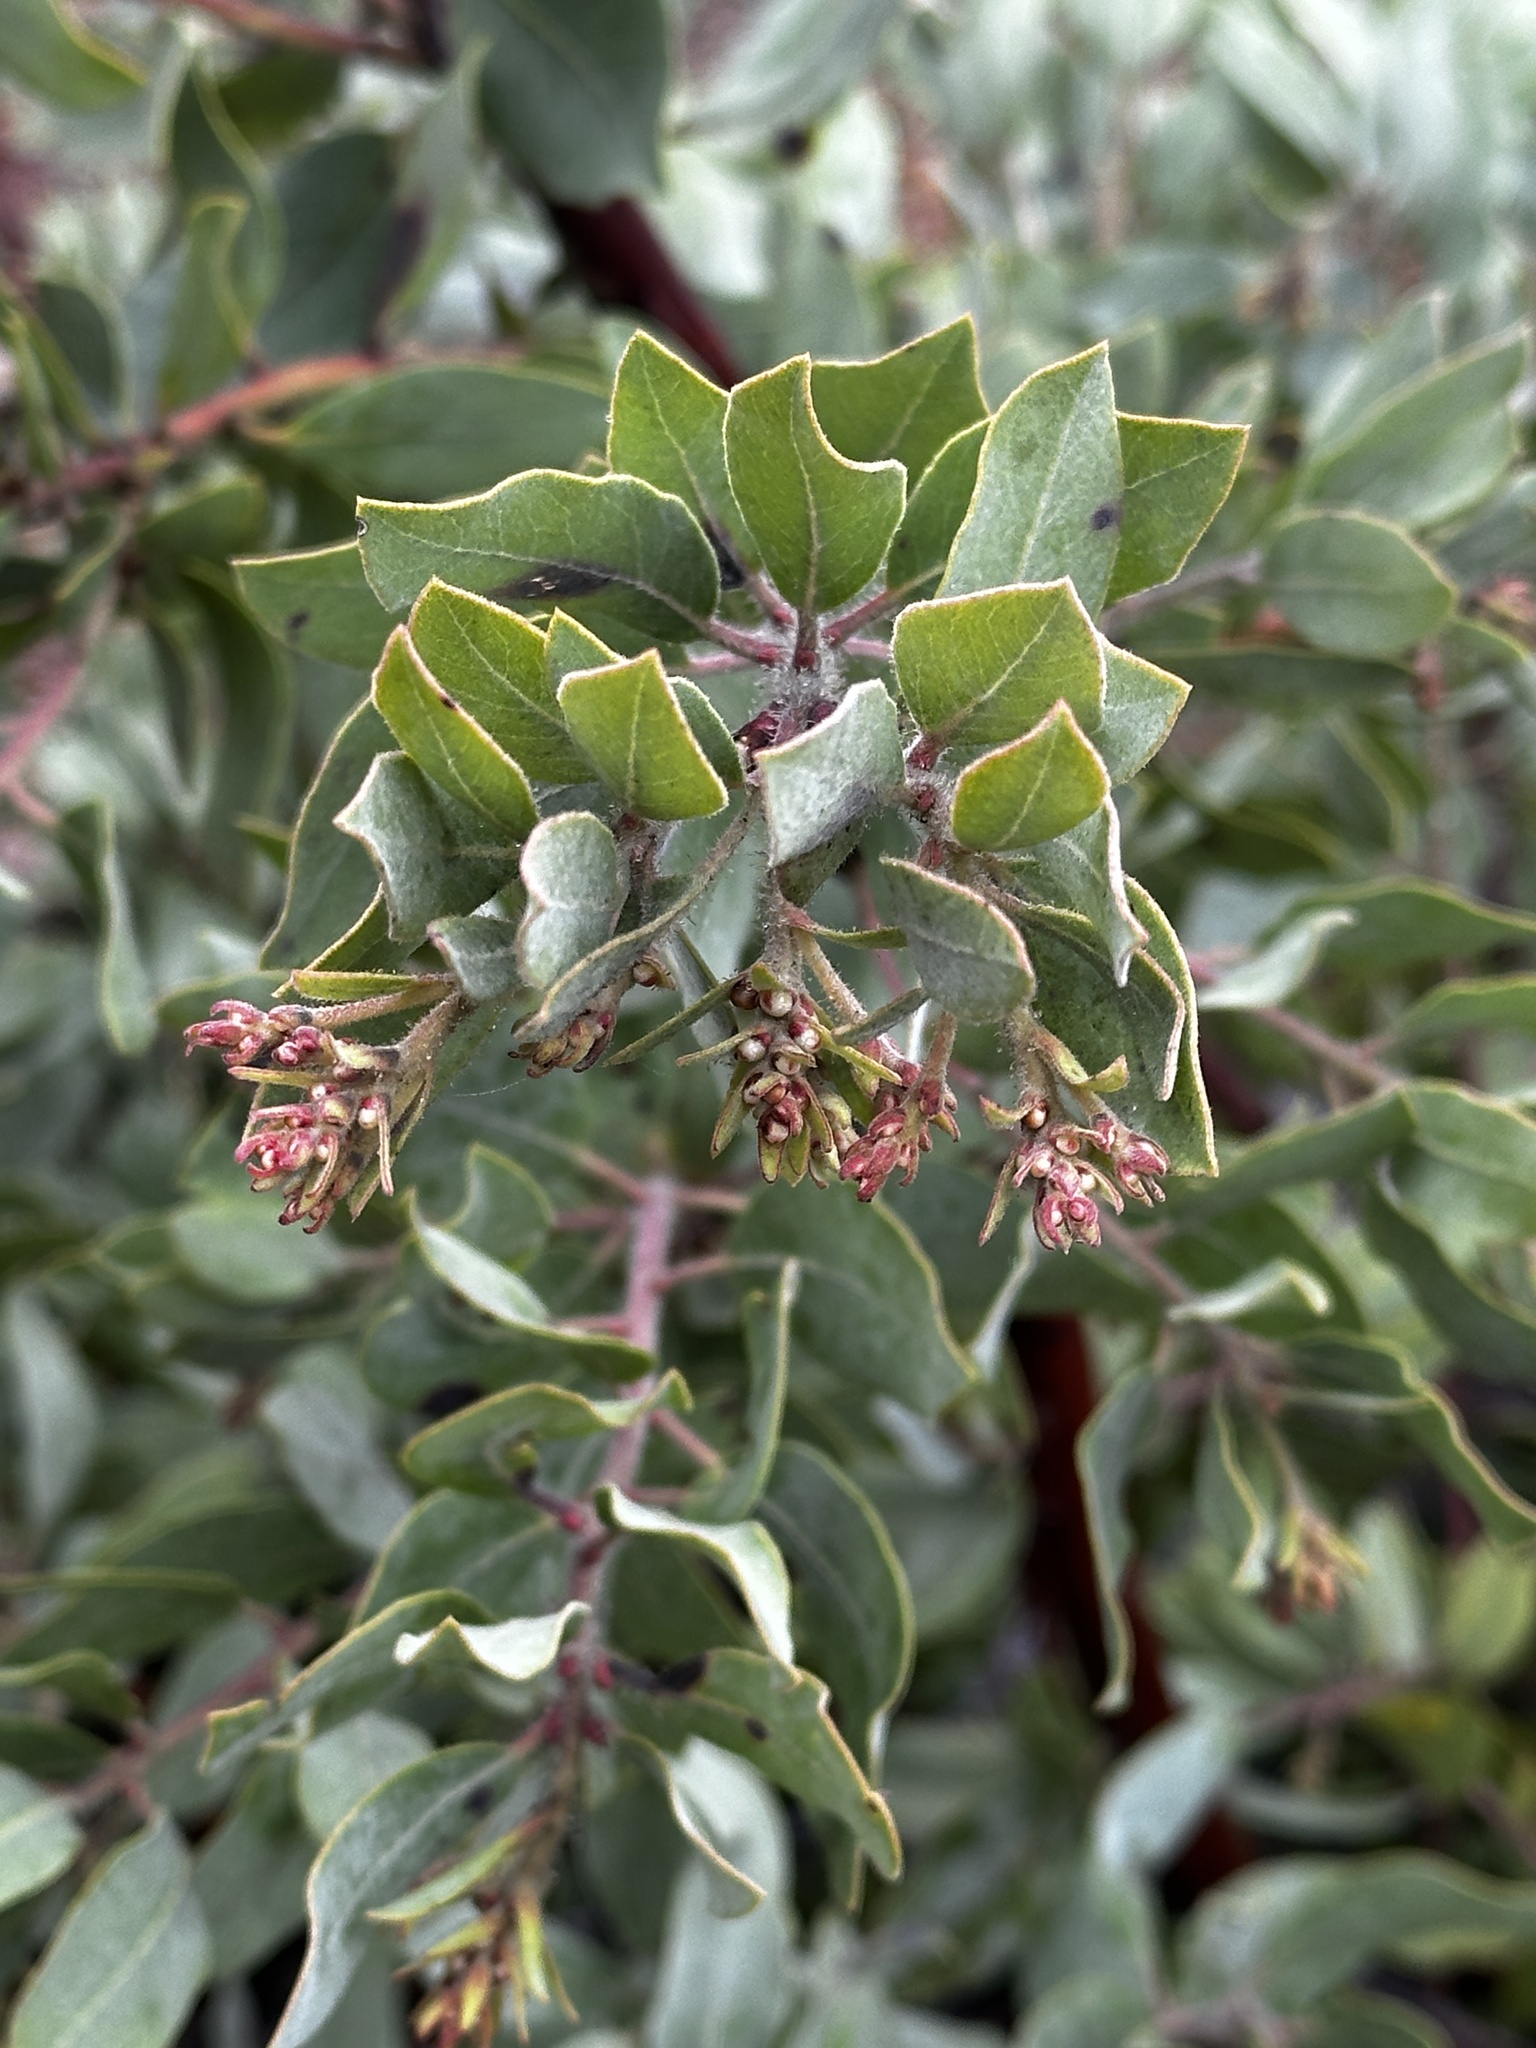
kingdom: Plantae
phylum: Tracheophyta
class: Magnoliopsida
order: Ericales
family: Ericaceae
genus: Arctostaphylos
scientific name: Arctostaphylos columbiana
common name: Bristly bearberry
